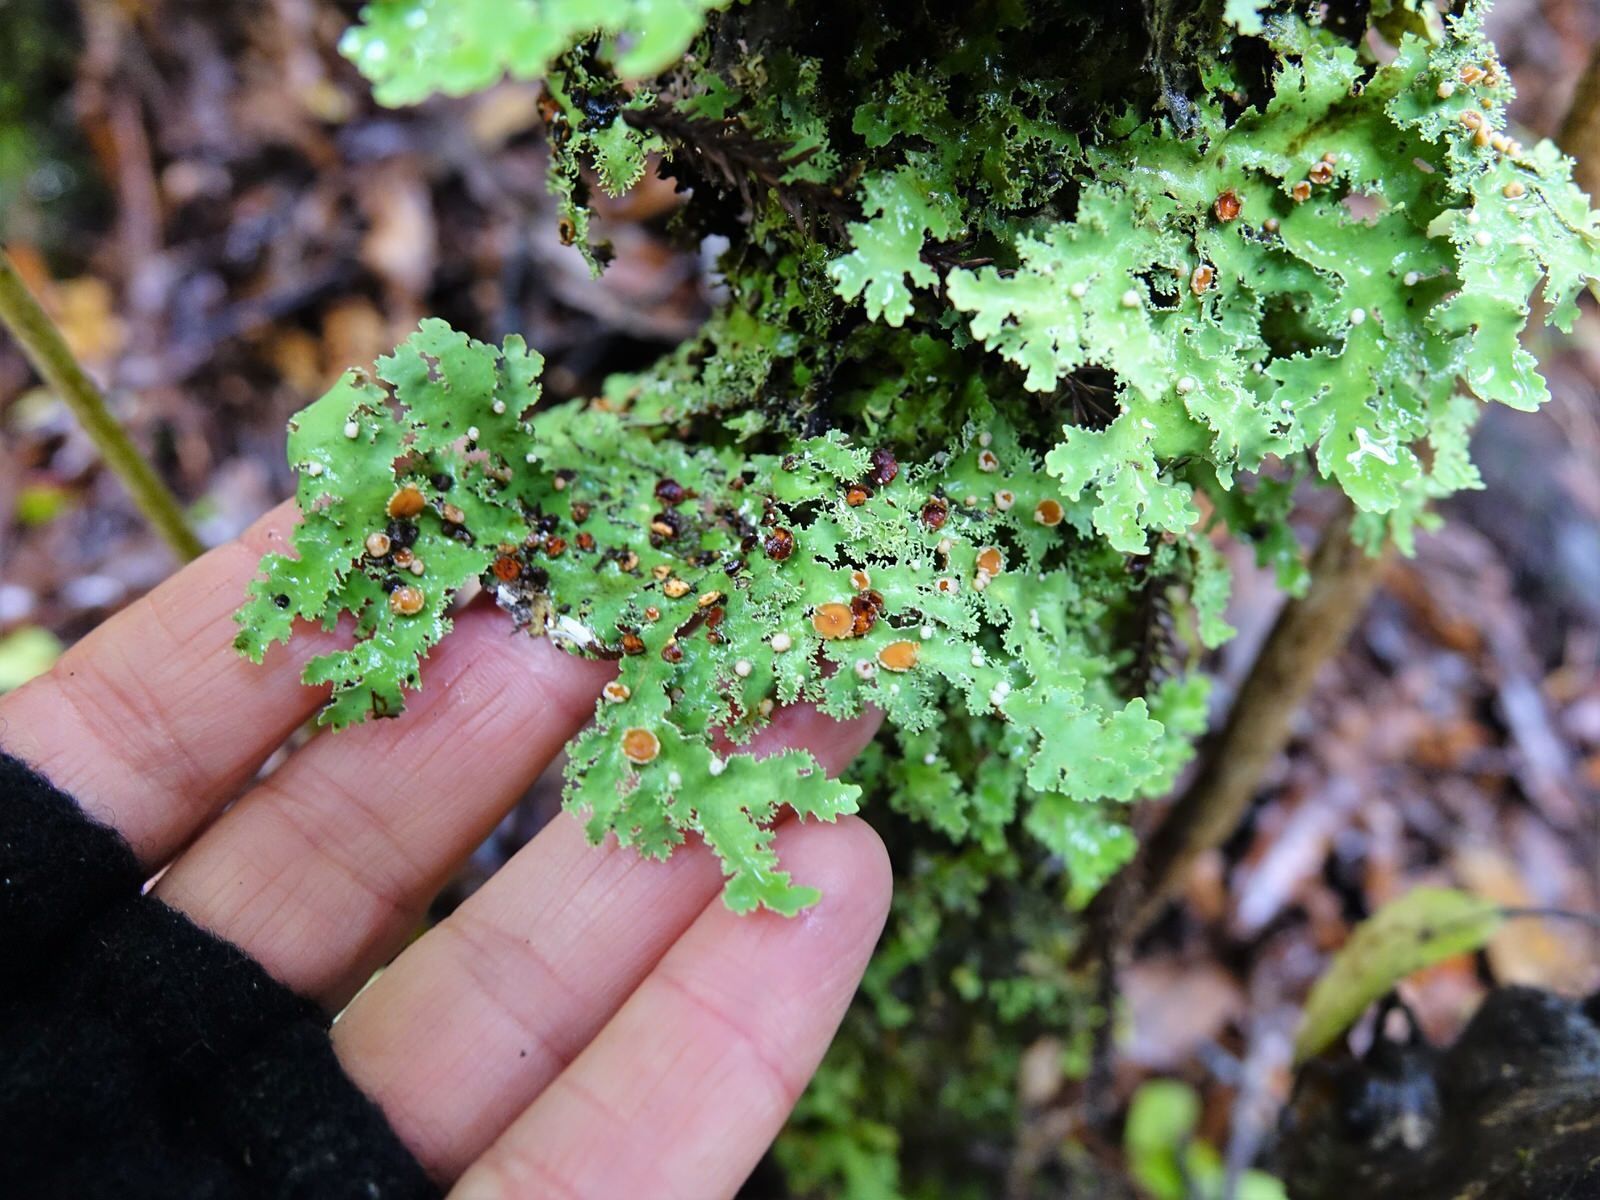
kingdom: Fungi
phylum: Ascomycota
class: Lecanoromycetes
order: Peltigerales
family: Lobariaceae
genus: Pseudocyphellaria
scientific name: Pseudocyphellaria multifida
